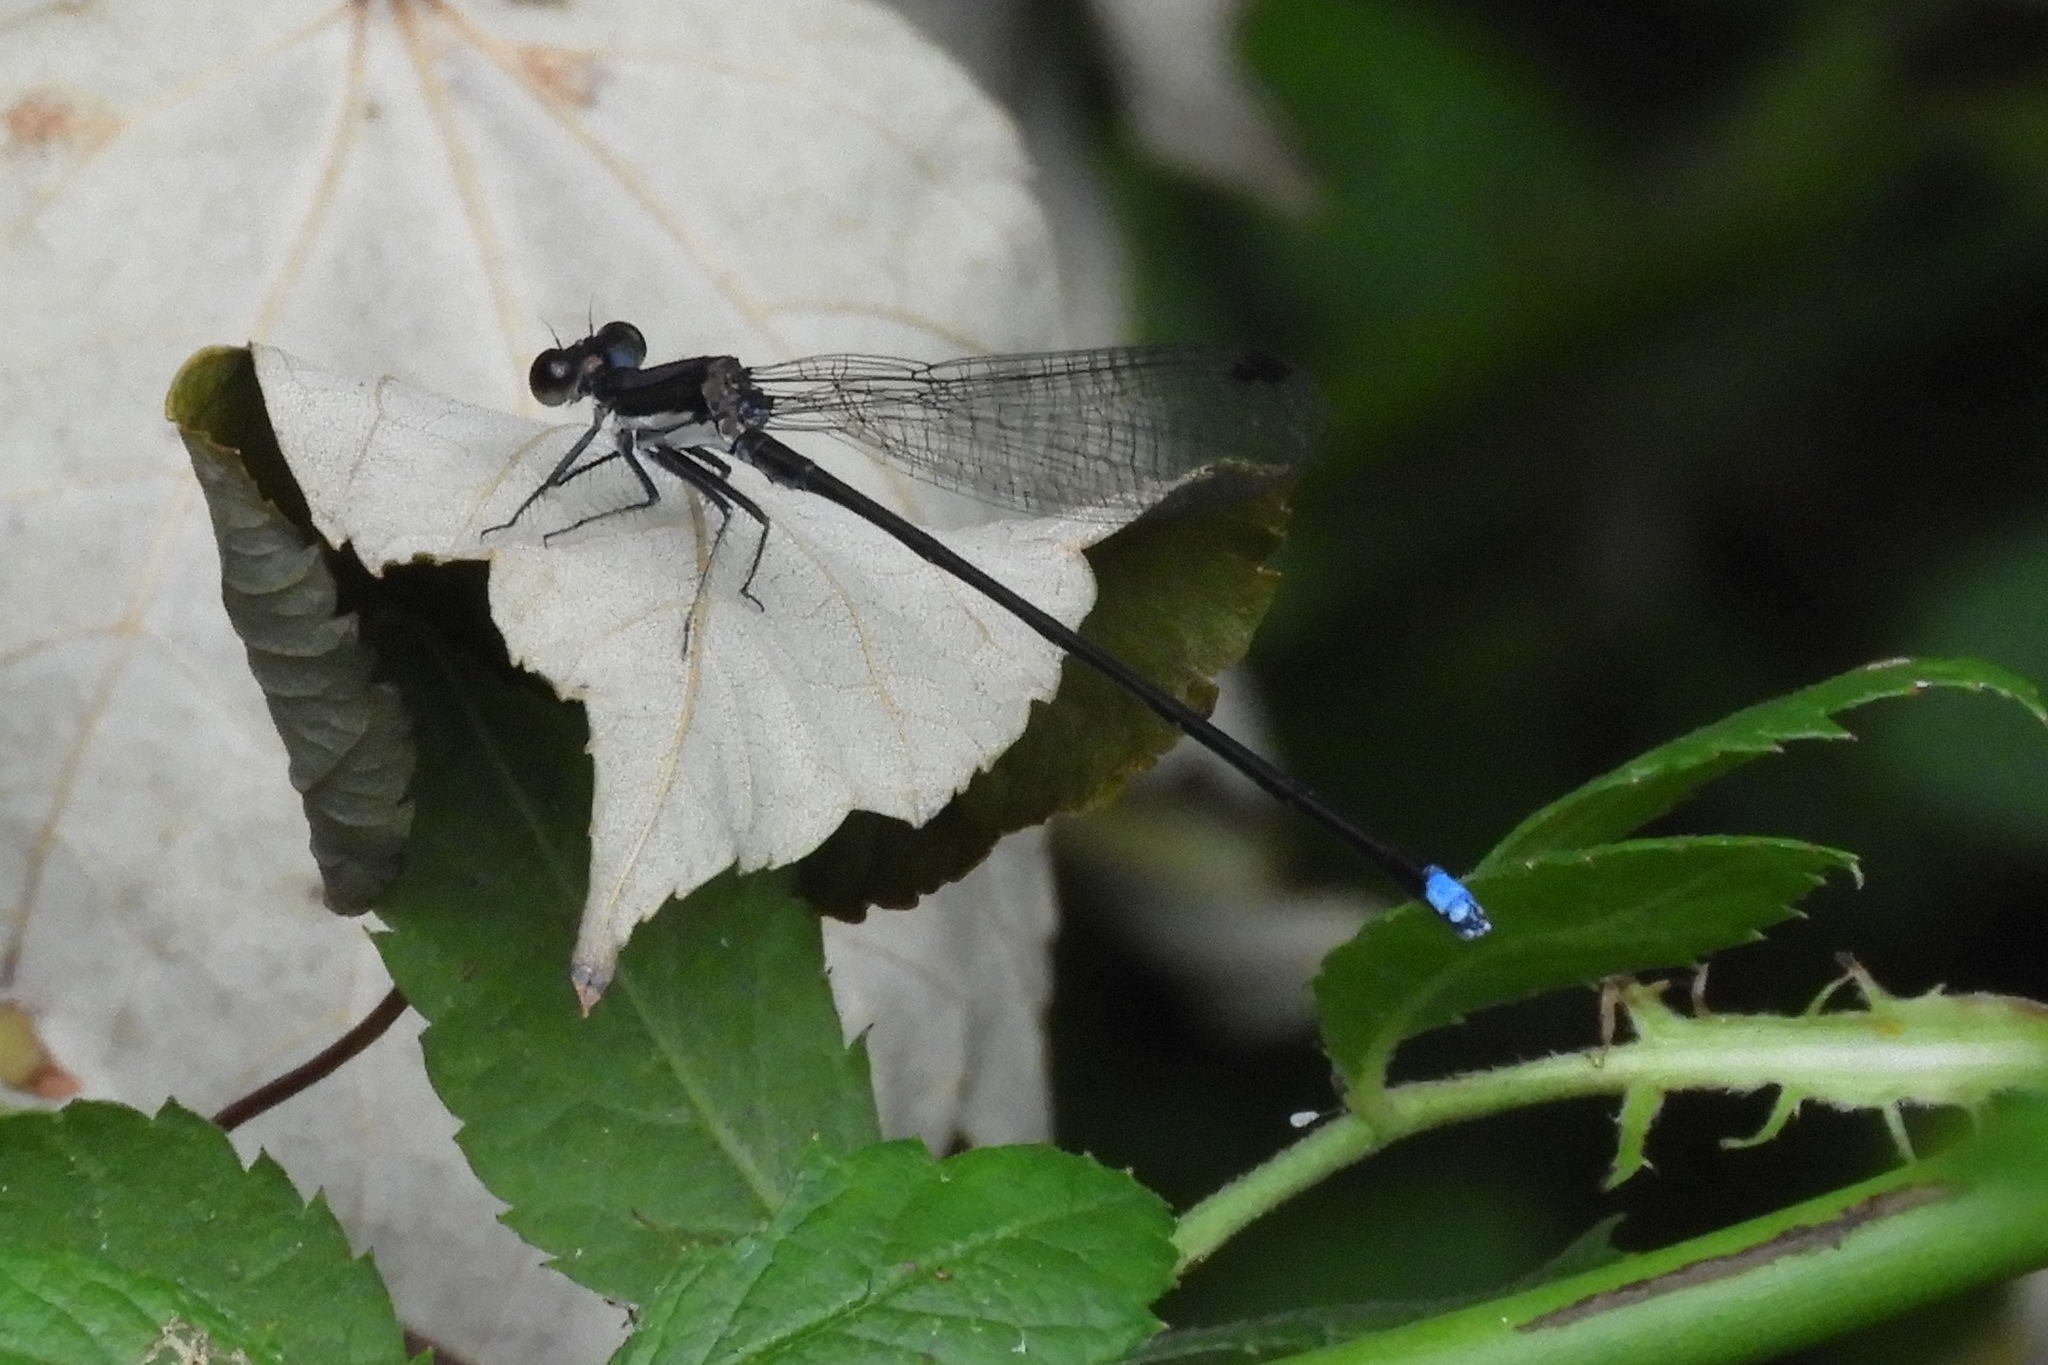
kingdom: Animalia
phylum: Arthropoda
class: Insecta
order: Odonata
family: Coenagrionidae
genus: Argia
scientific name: Argia tibialis
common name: Blue-tipped dancer
